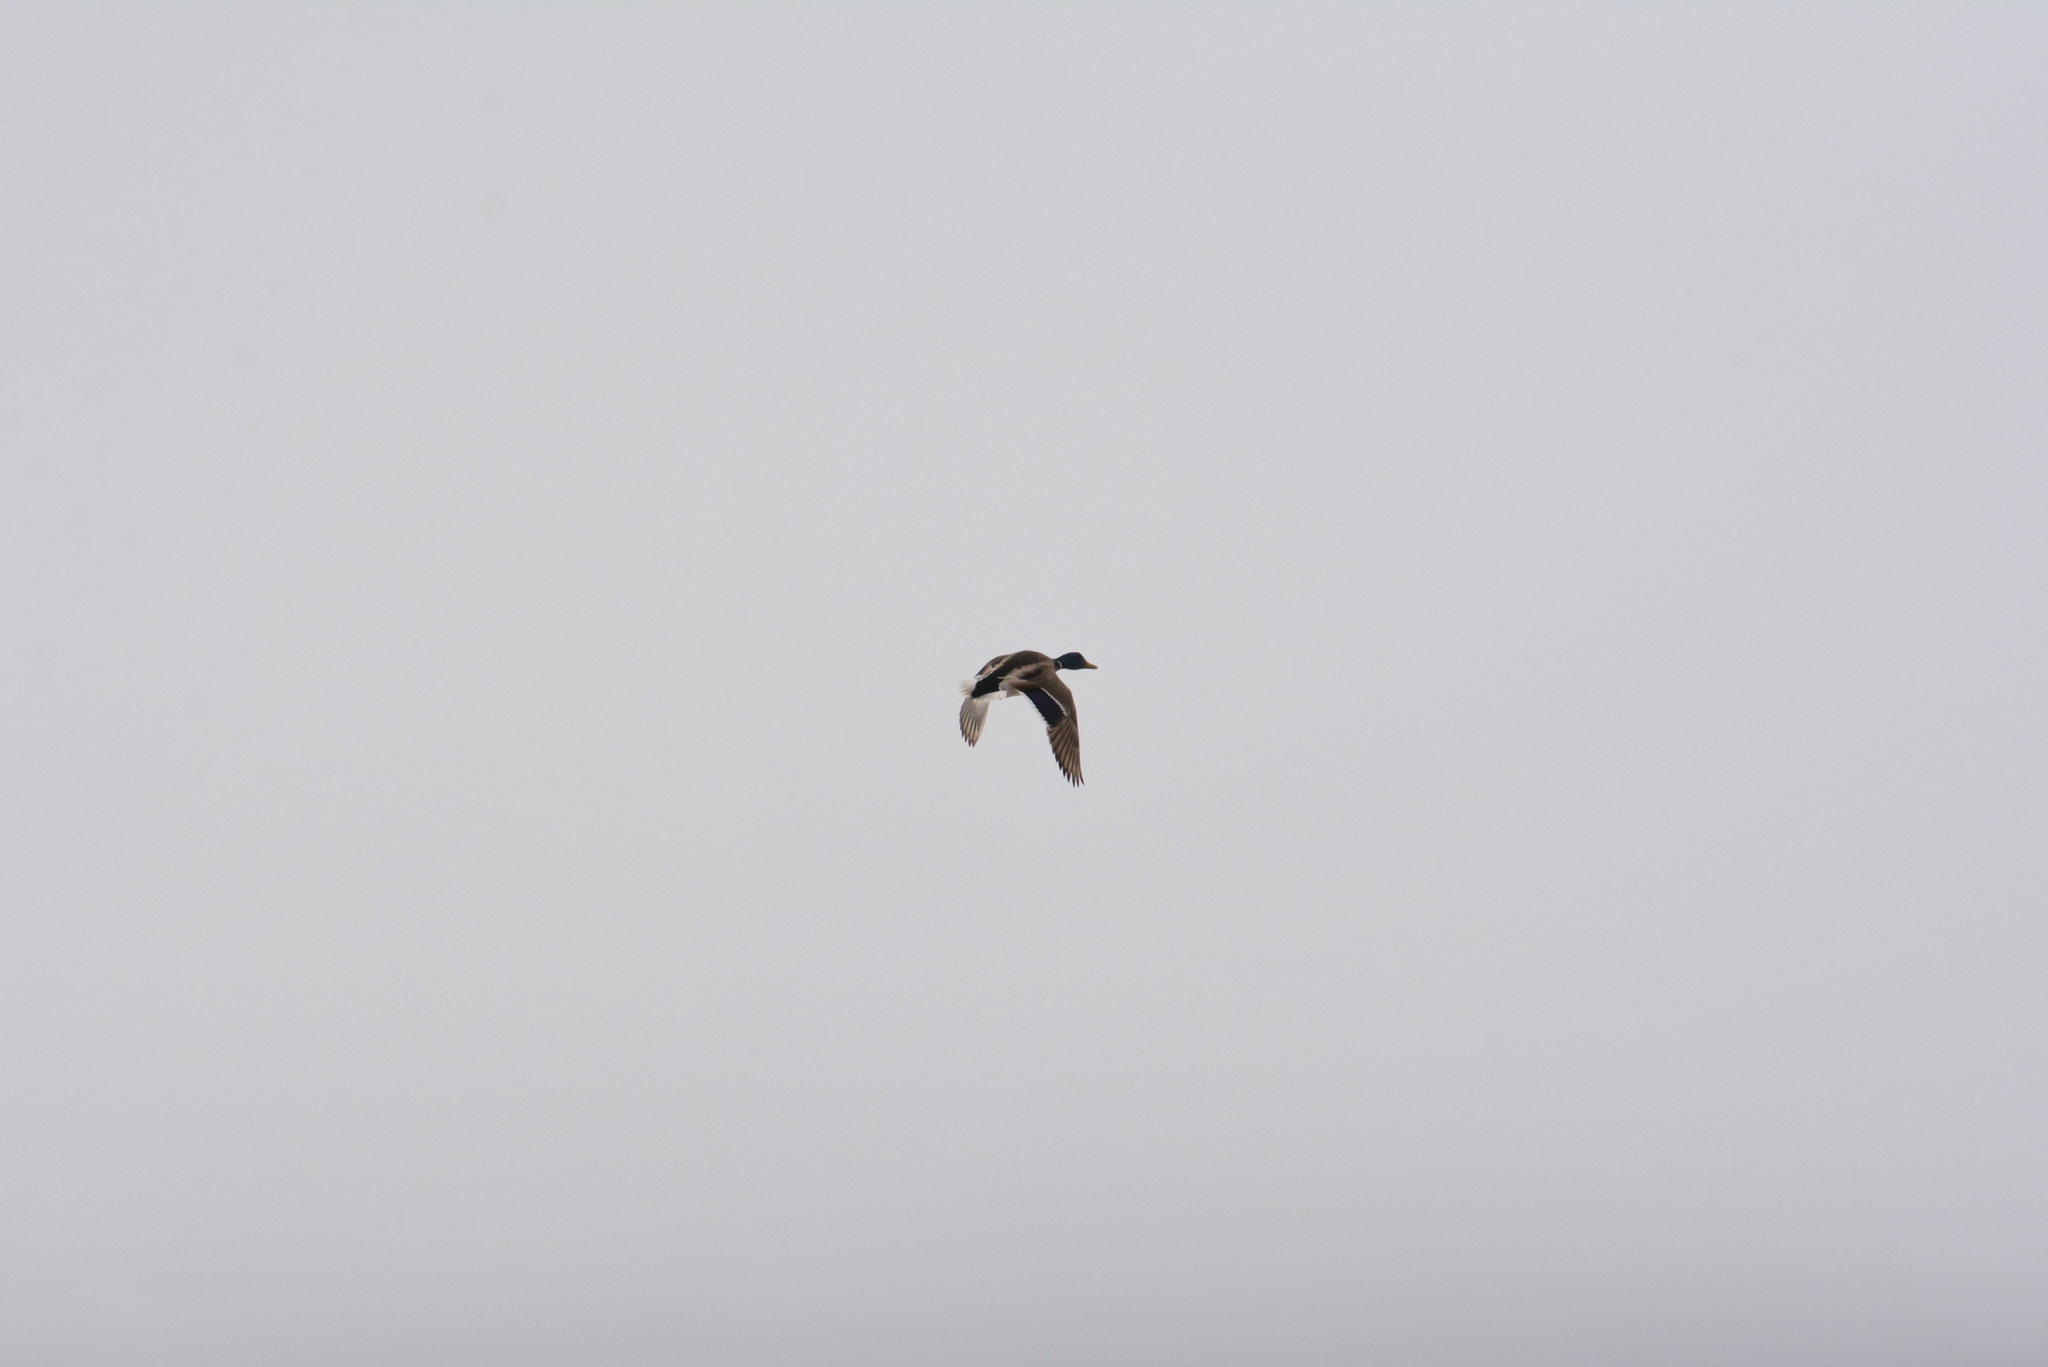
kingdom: Animalia
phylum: Chordata
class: Aves
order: Anseriformes
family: Anatidae
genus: Anas
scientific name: Anas platyrhynchos
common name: Mallard
